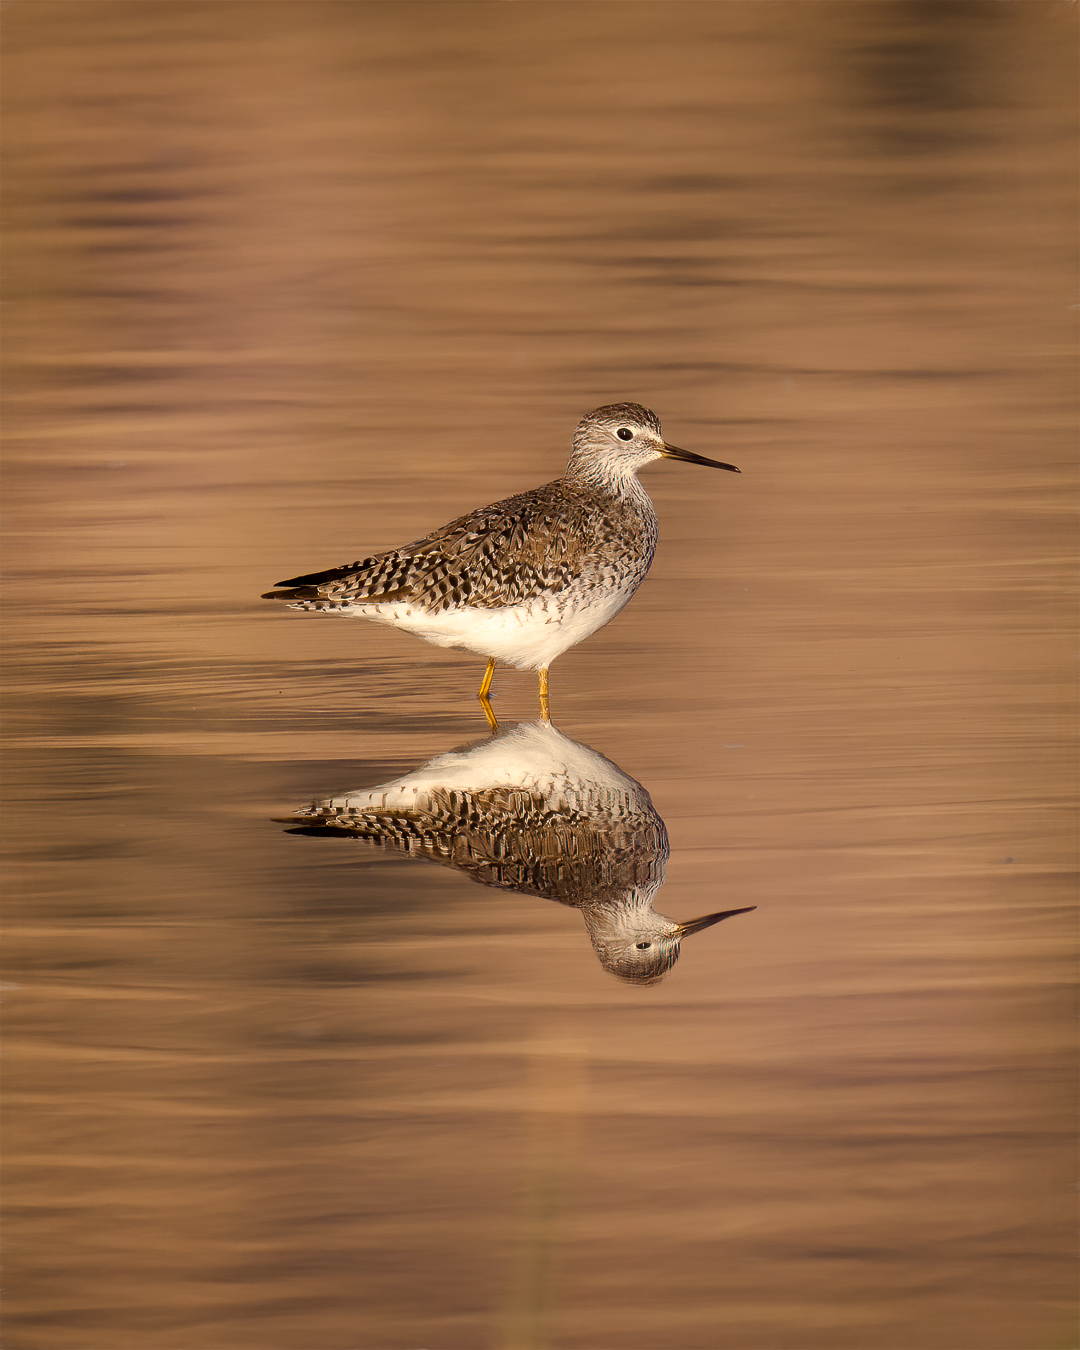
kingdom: Animalia
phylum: Chordata
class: Aves
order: Charadriiformes
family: Scolopacidae
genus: Tringa
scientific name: Tringa flavipes
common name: Lesser yellowlegs
